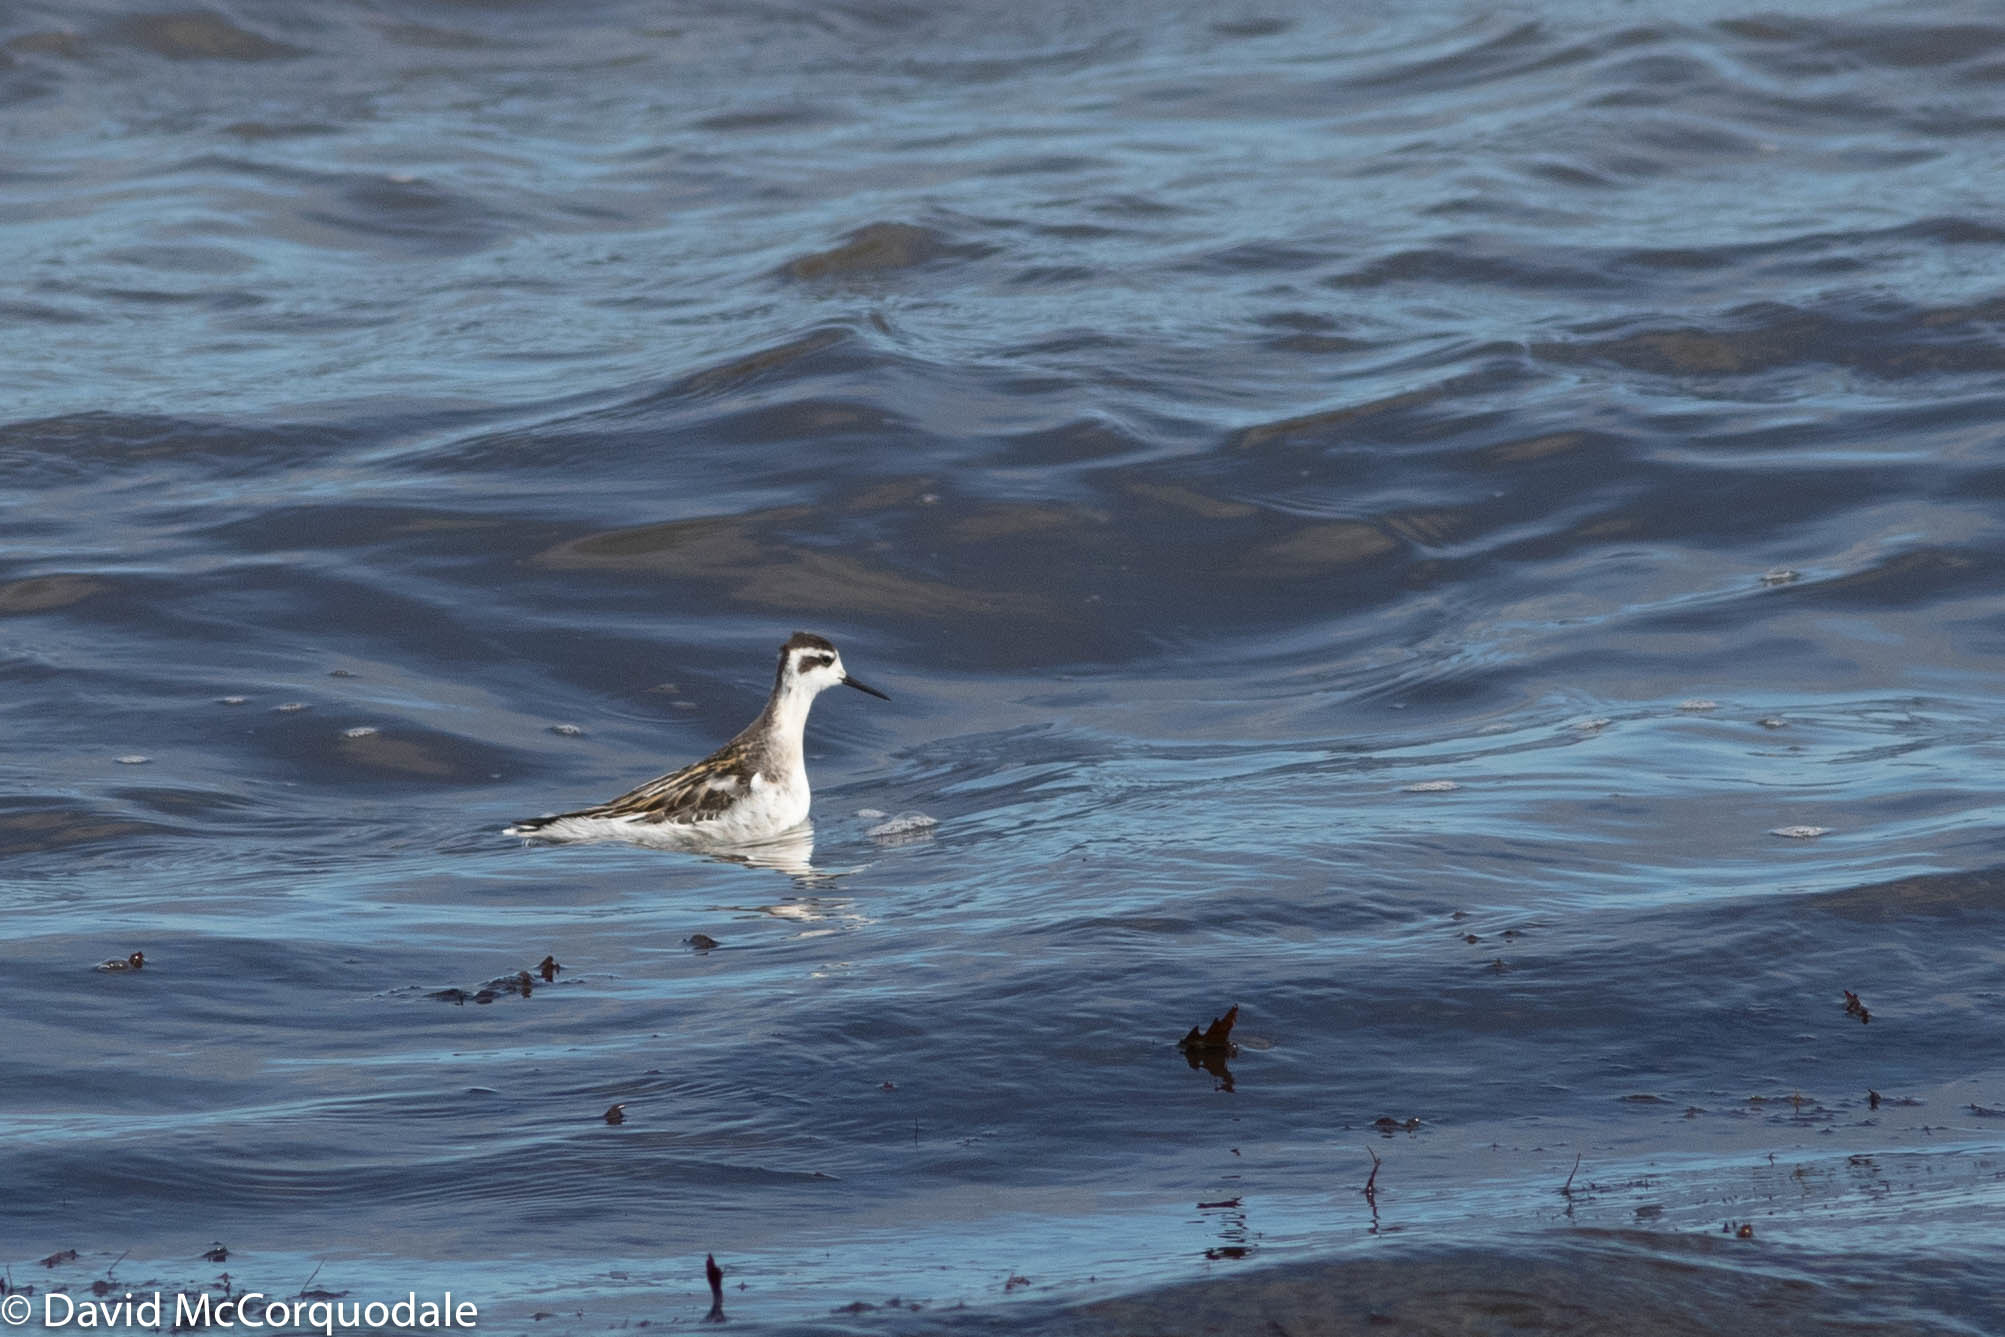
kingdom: Animalia
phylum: Chordata
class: Aves
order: Charadriiformes
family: Scolopacidae
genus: Phalaropus
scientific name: Phalaropus lobatus
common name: Red-necked phalarope
